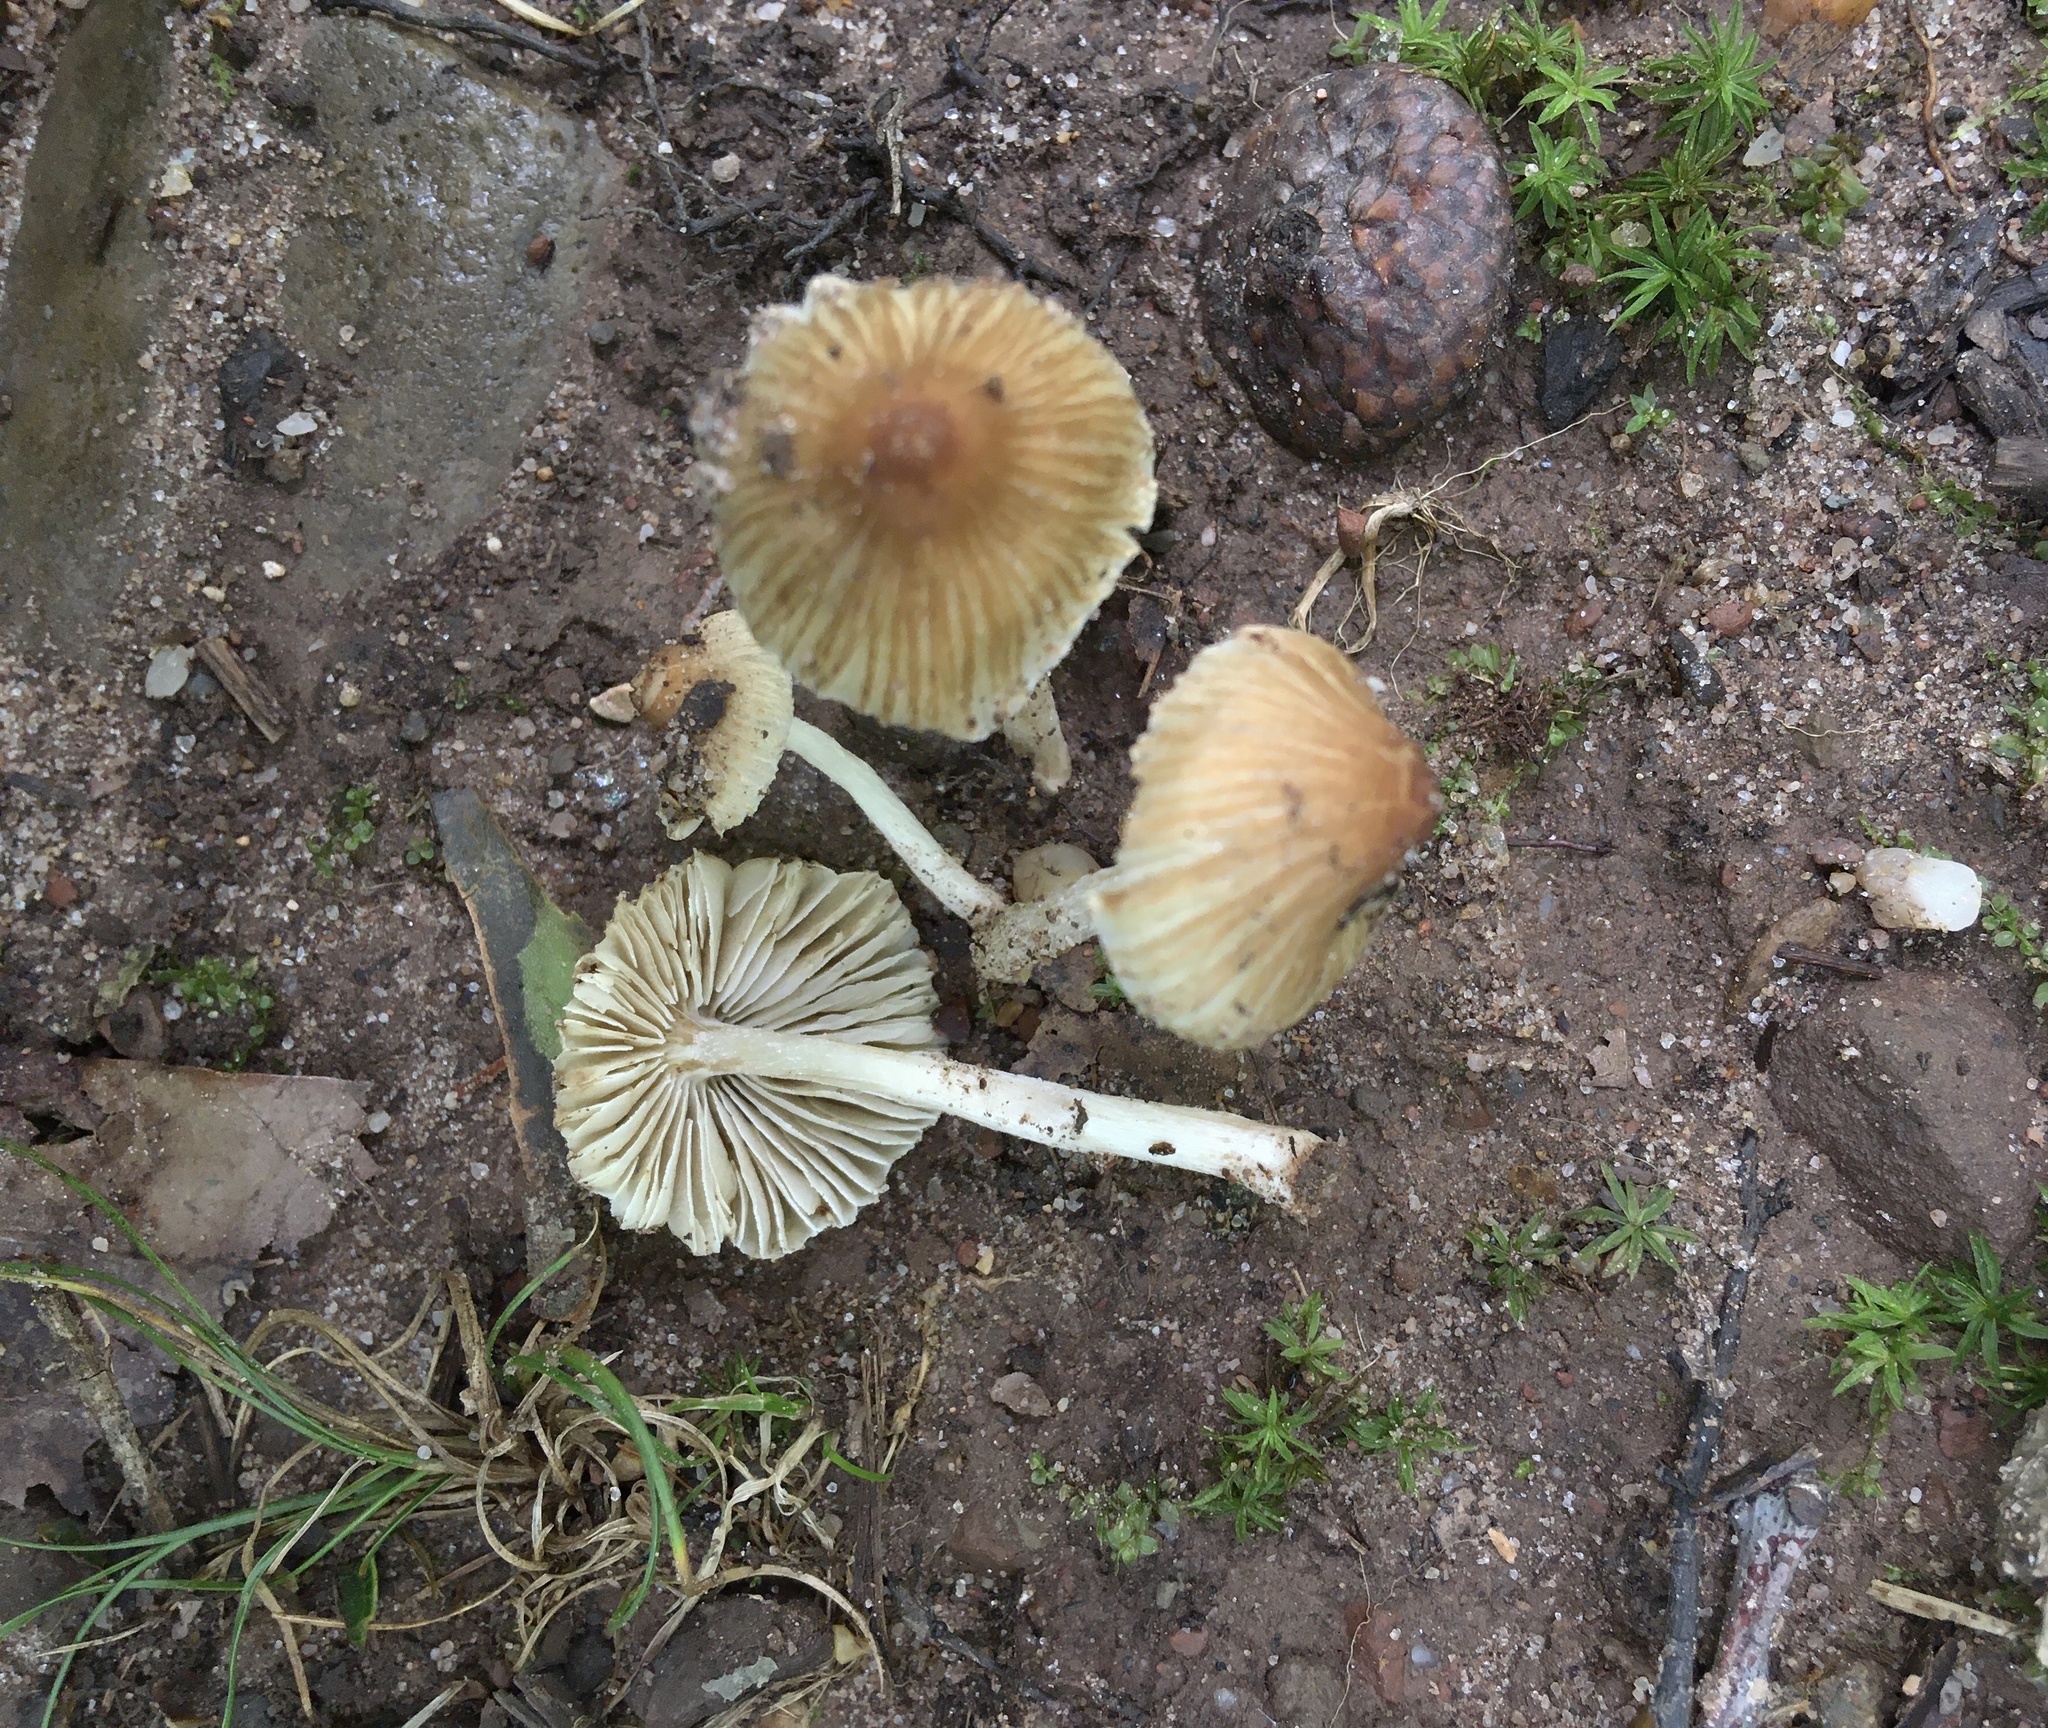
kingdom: Fungi
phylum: Basidiomycota
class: Agaricomycetes
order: Agaricales
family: Inocybaceae
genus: Pseudosperma
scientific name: Pseudosperma friabile
